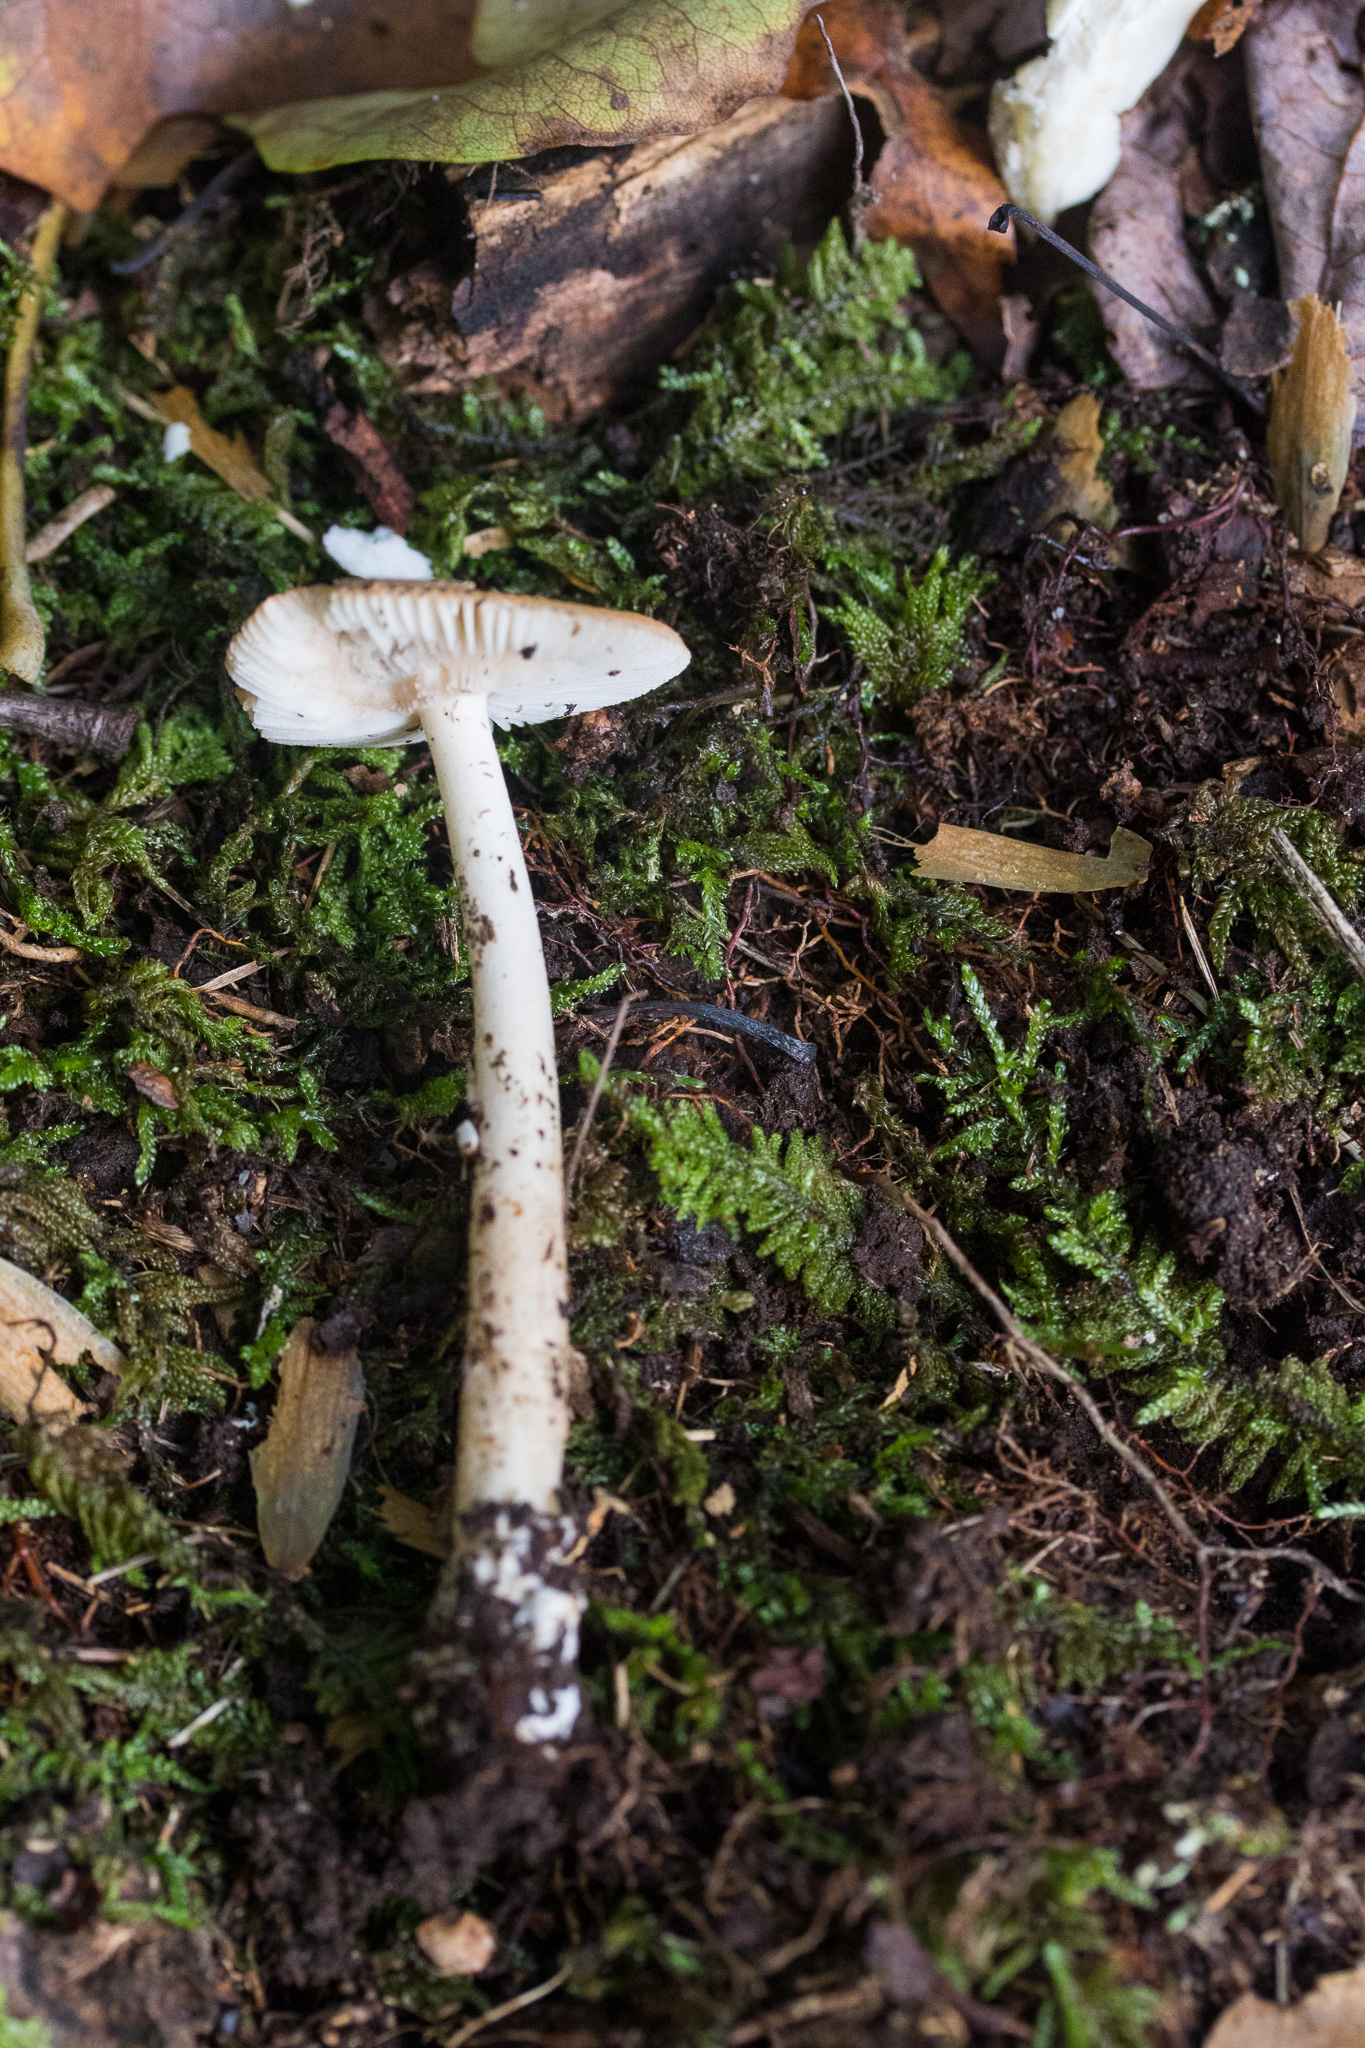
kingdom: Fungi
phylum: Basidiomycota
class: Agaricomycetes
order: Agaricales
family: Amanitaceae
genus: Amanita
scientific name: Amanita fulva
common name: Tawny grisette
